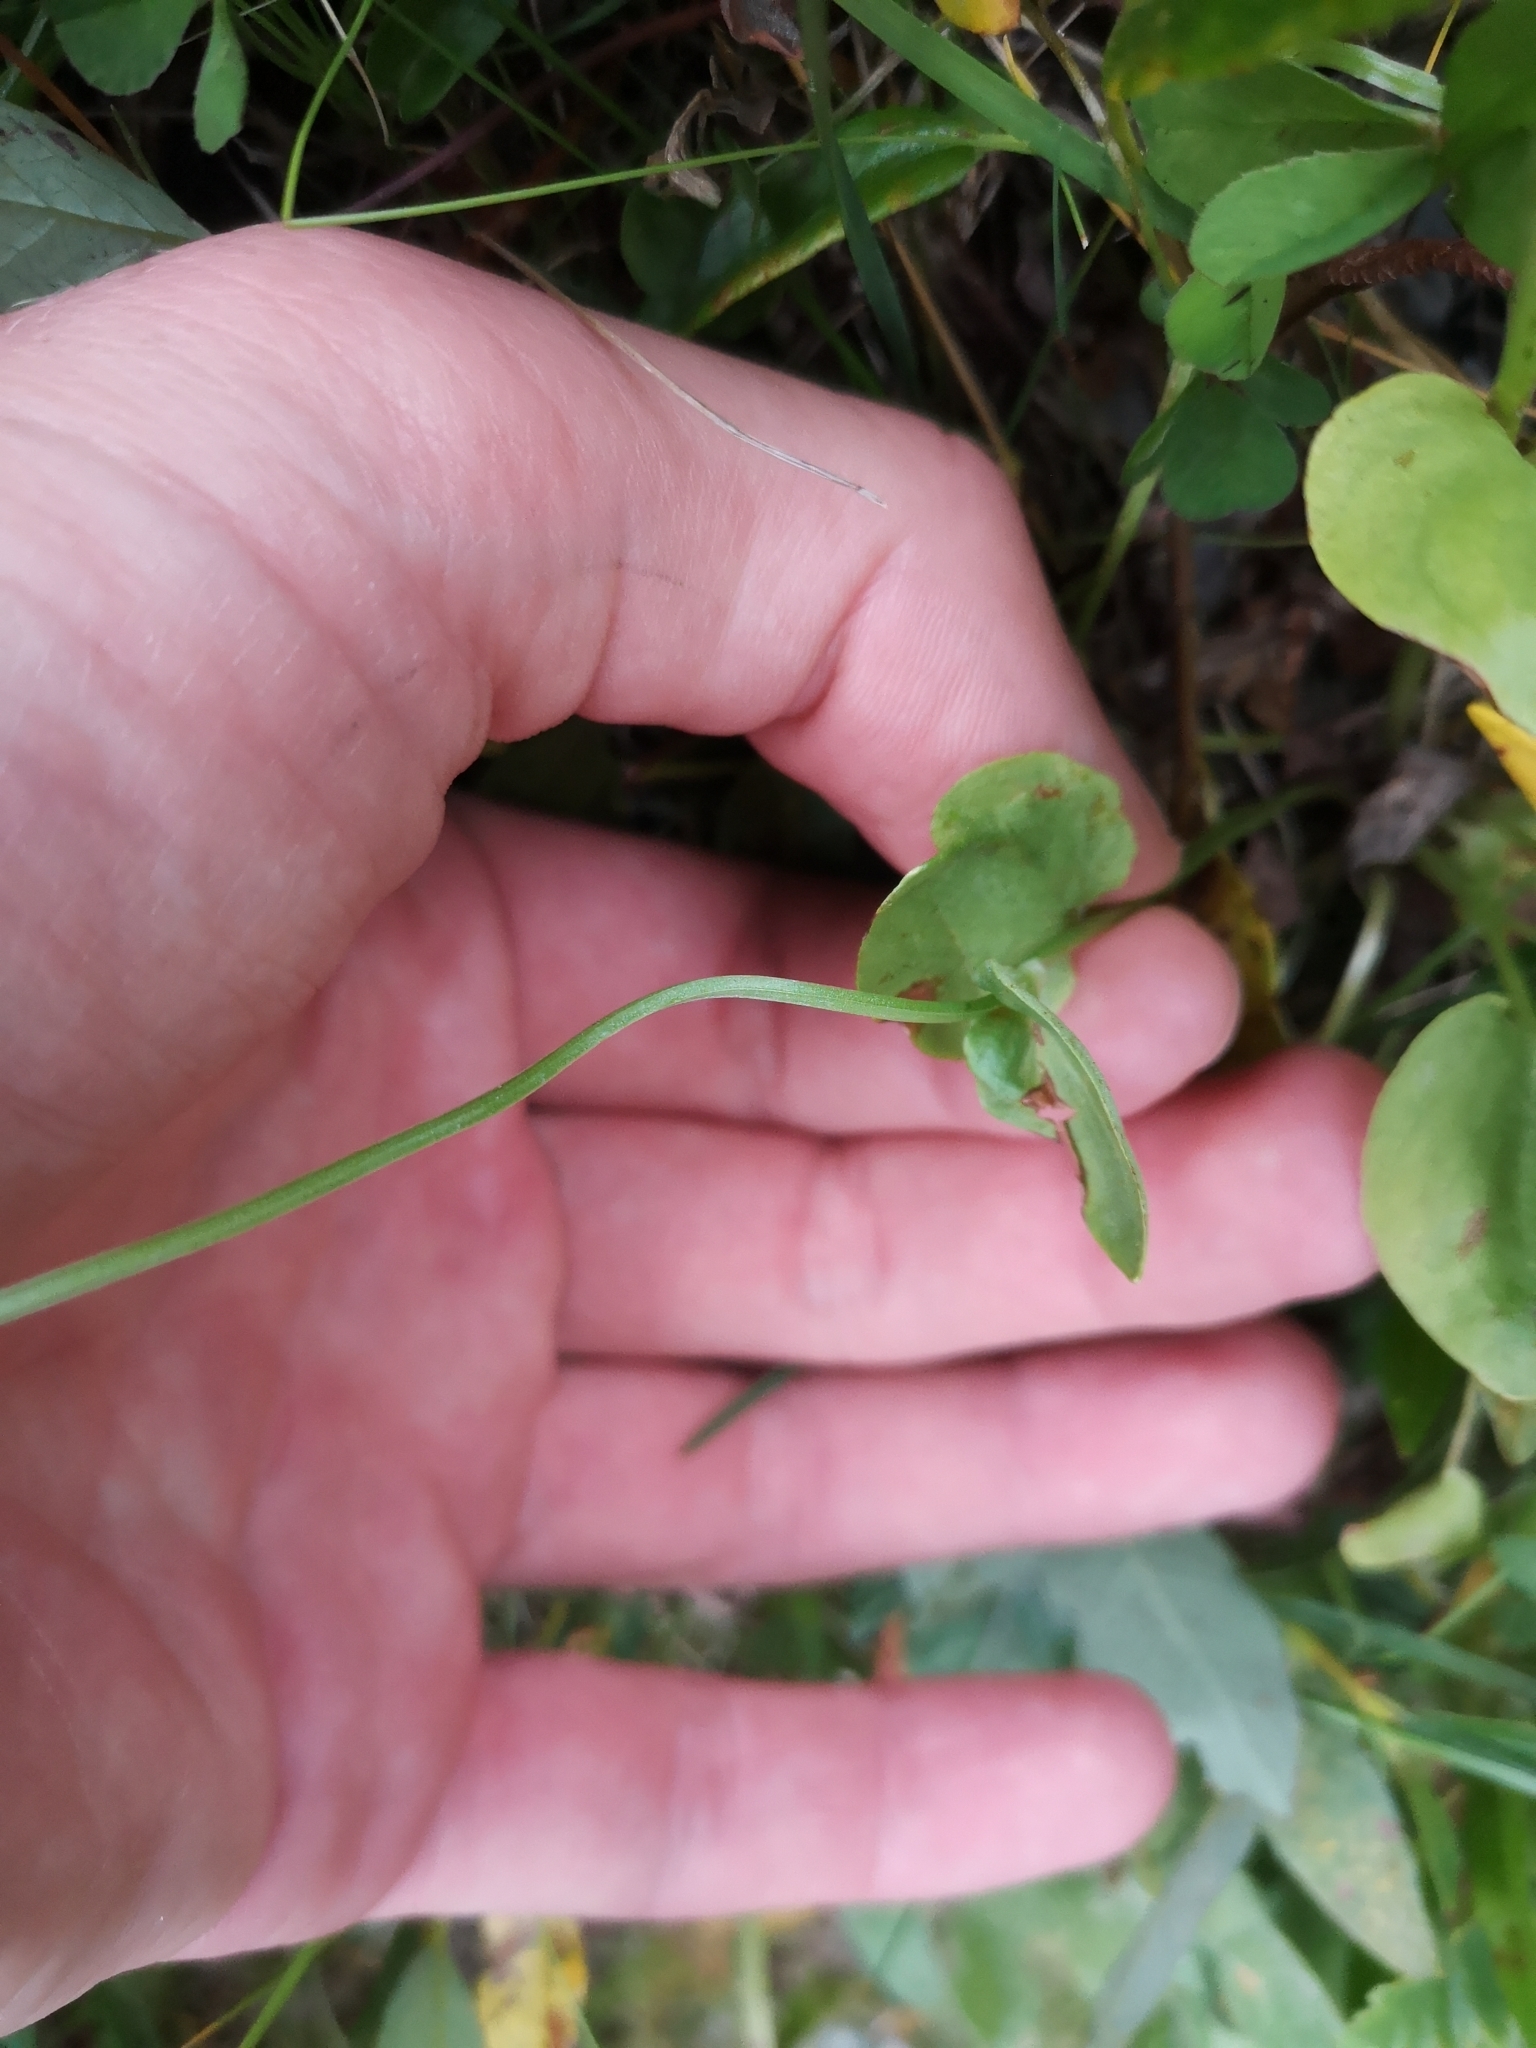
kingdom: Plantae
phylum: Tracheophyta
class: Magnoliopsida
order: Celastrales
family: Parnassiaceae
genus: Parnassia
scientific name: Parnassia palustris
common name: Grass-of-parnassus
